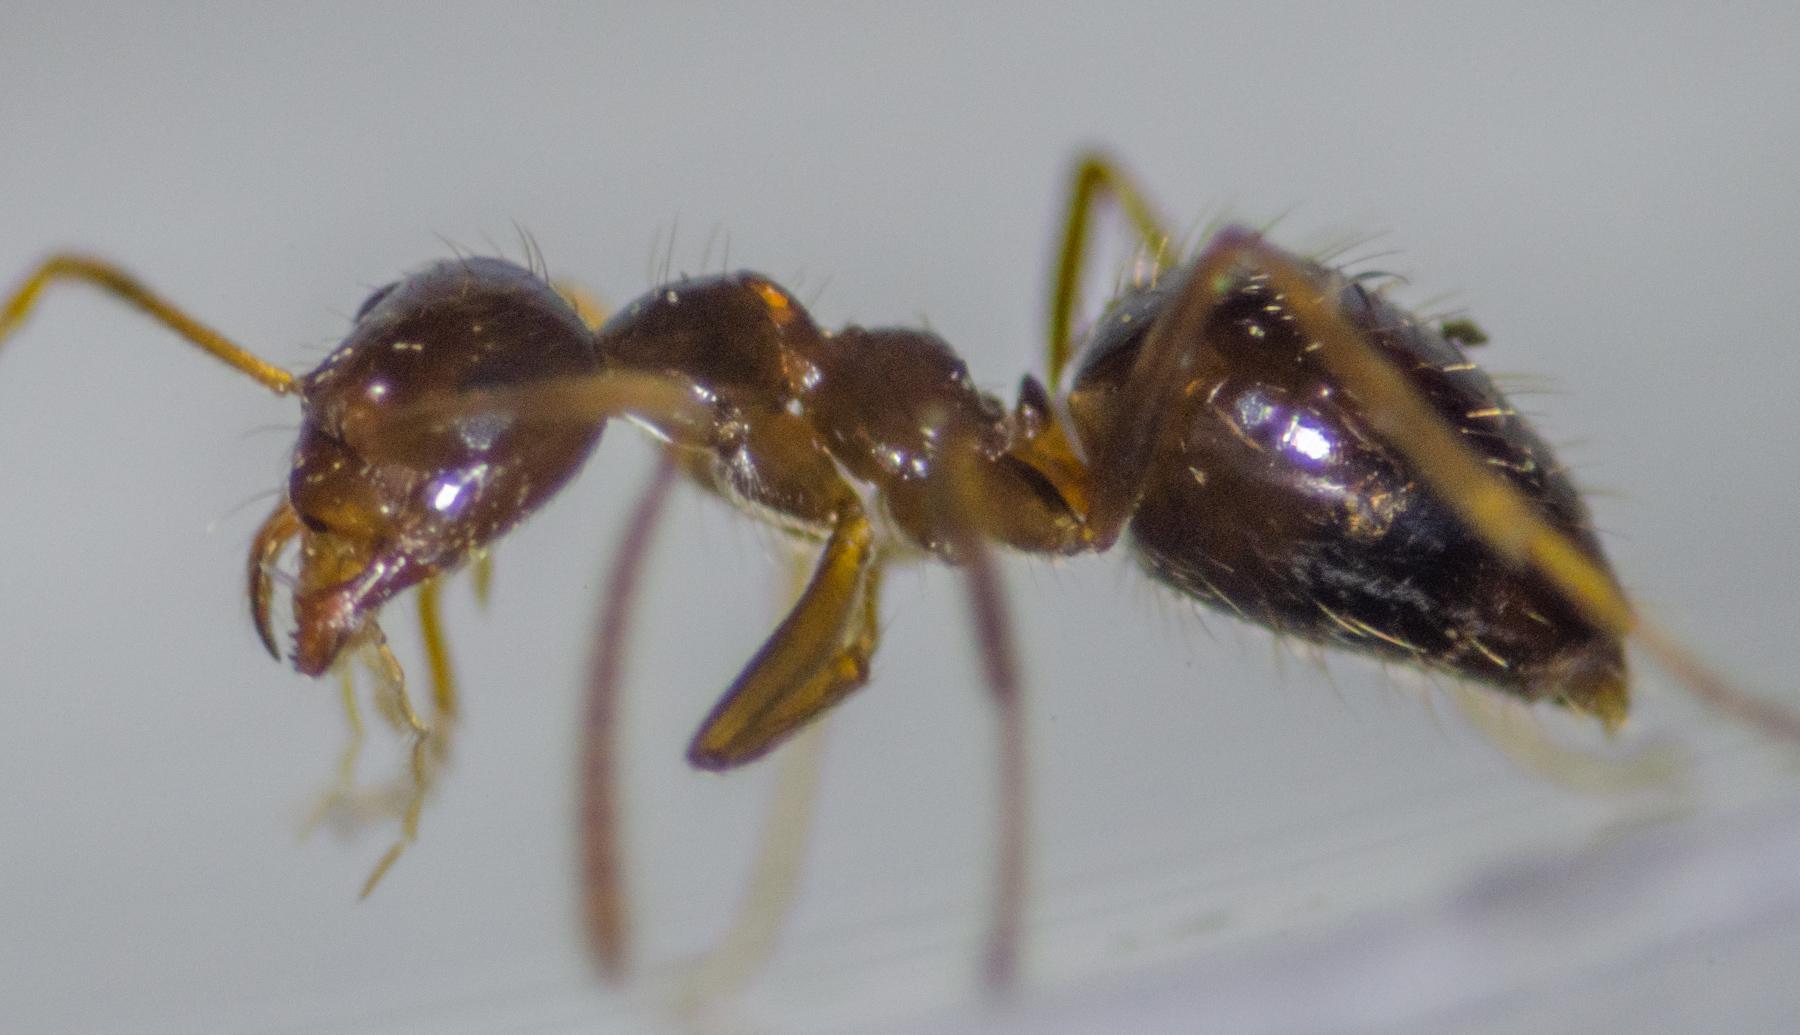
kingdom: Animalia
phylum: Arthropoda
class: Insecta
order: Hymenoptera
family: Formicidae
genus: Prenolepis
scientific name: Prenolepis imparis
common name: Small honey ant
